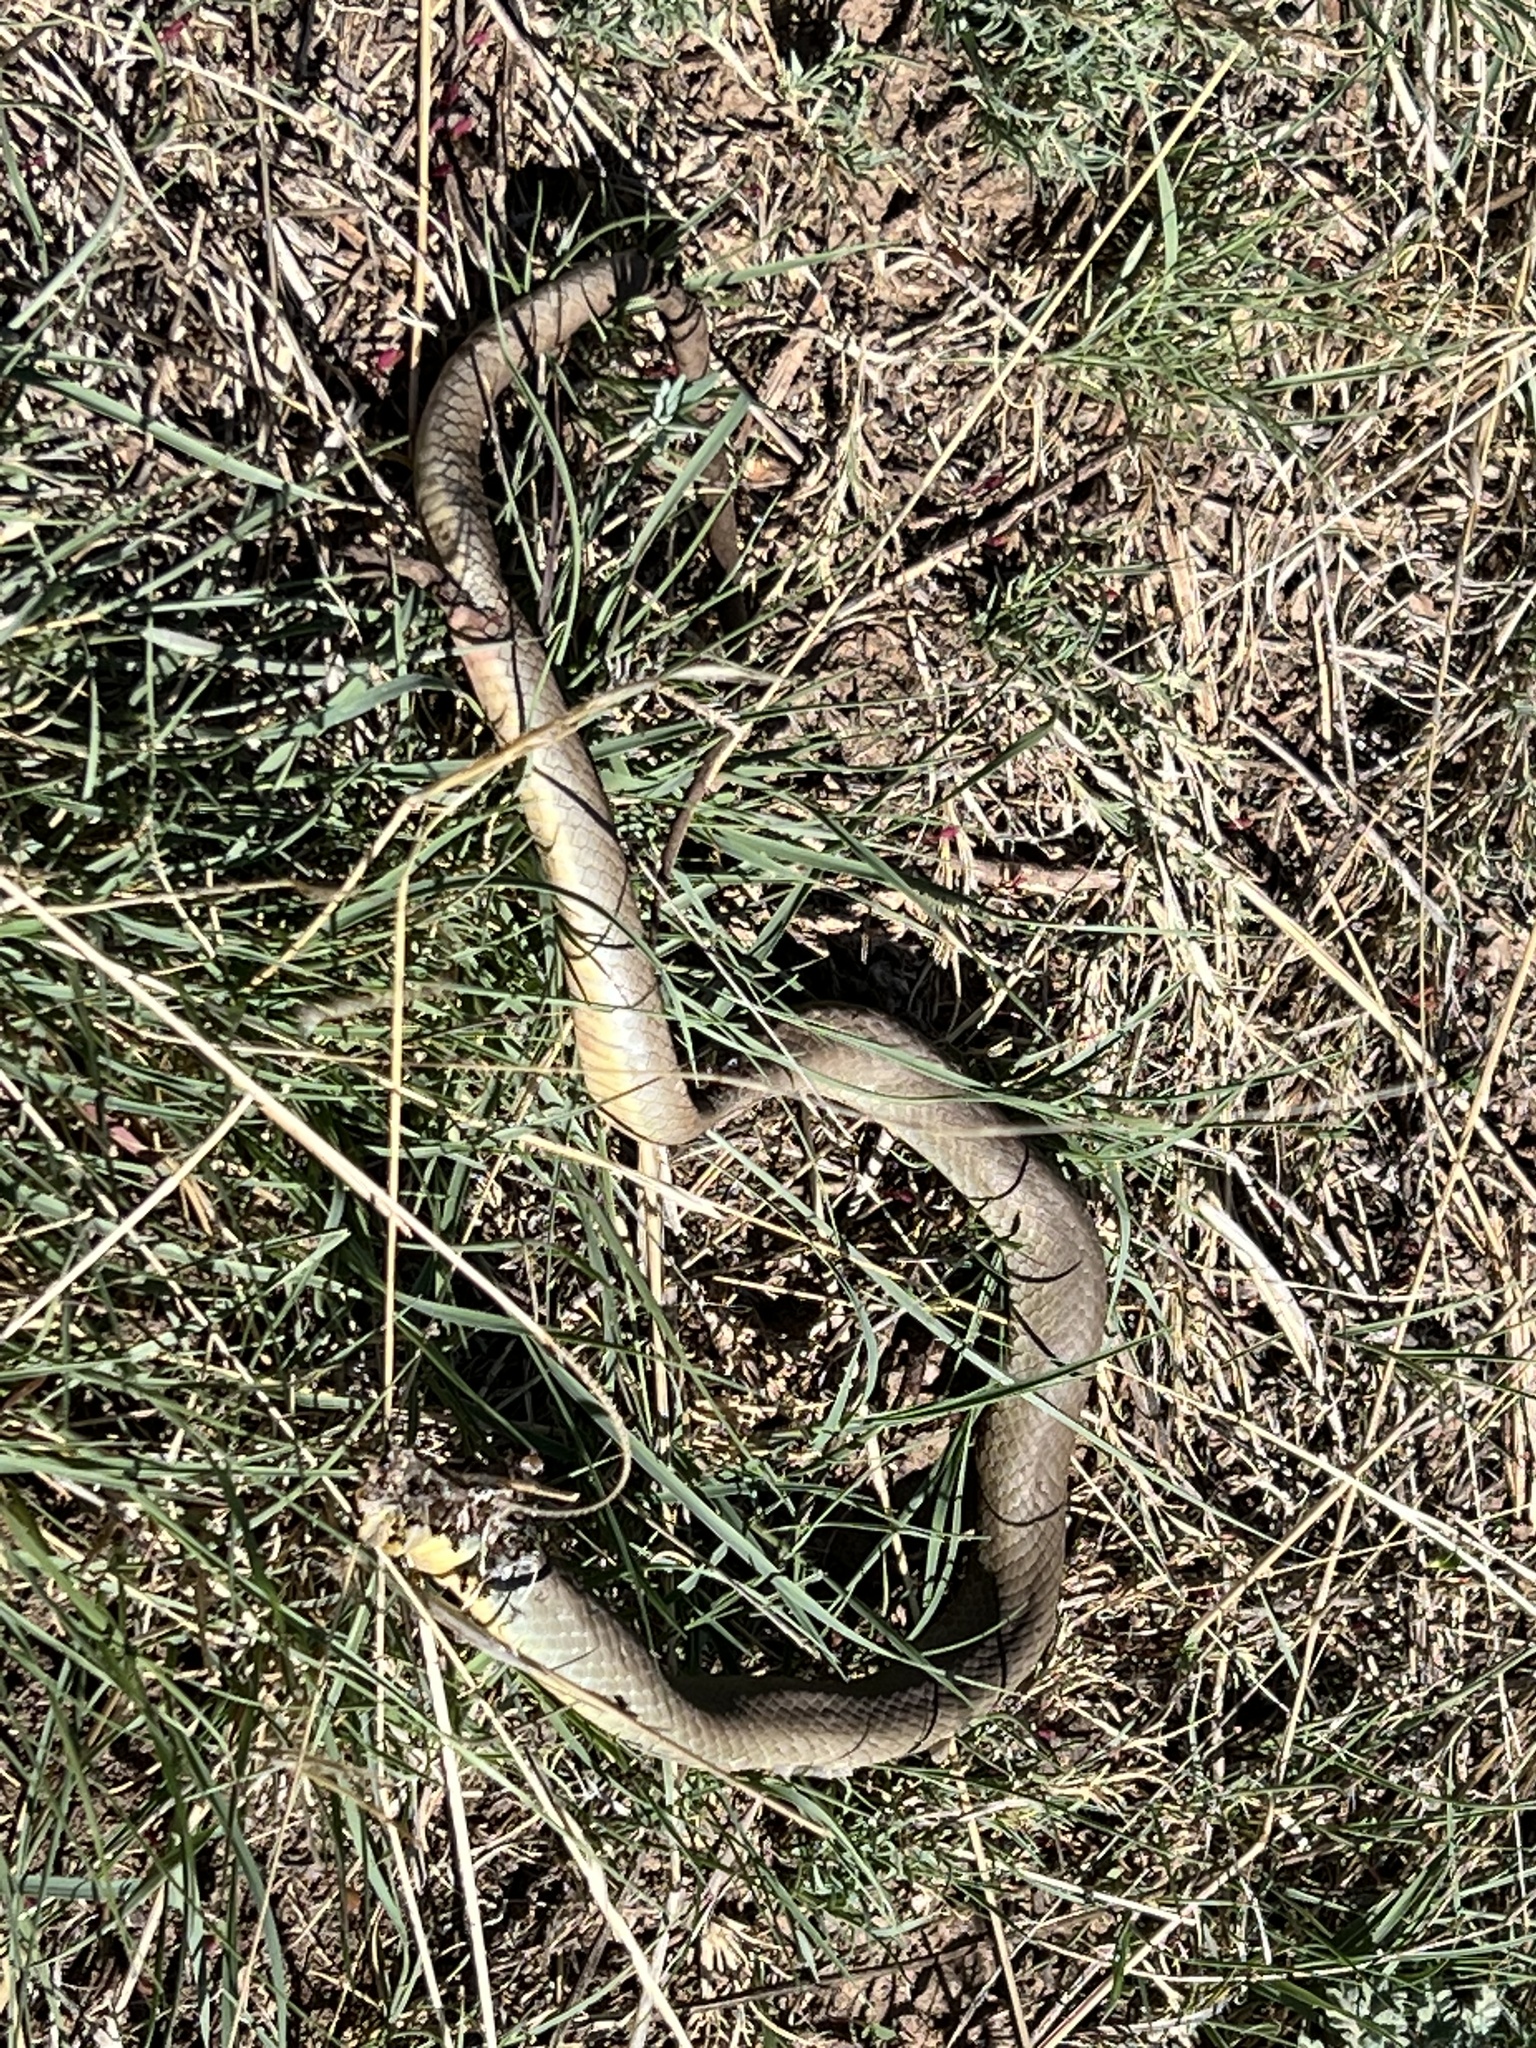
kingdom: Animalia
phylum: Chordata
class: Squamata
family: Colubridae
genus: Coluber
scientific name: Coluber constrictor
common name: Eastern racer
